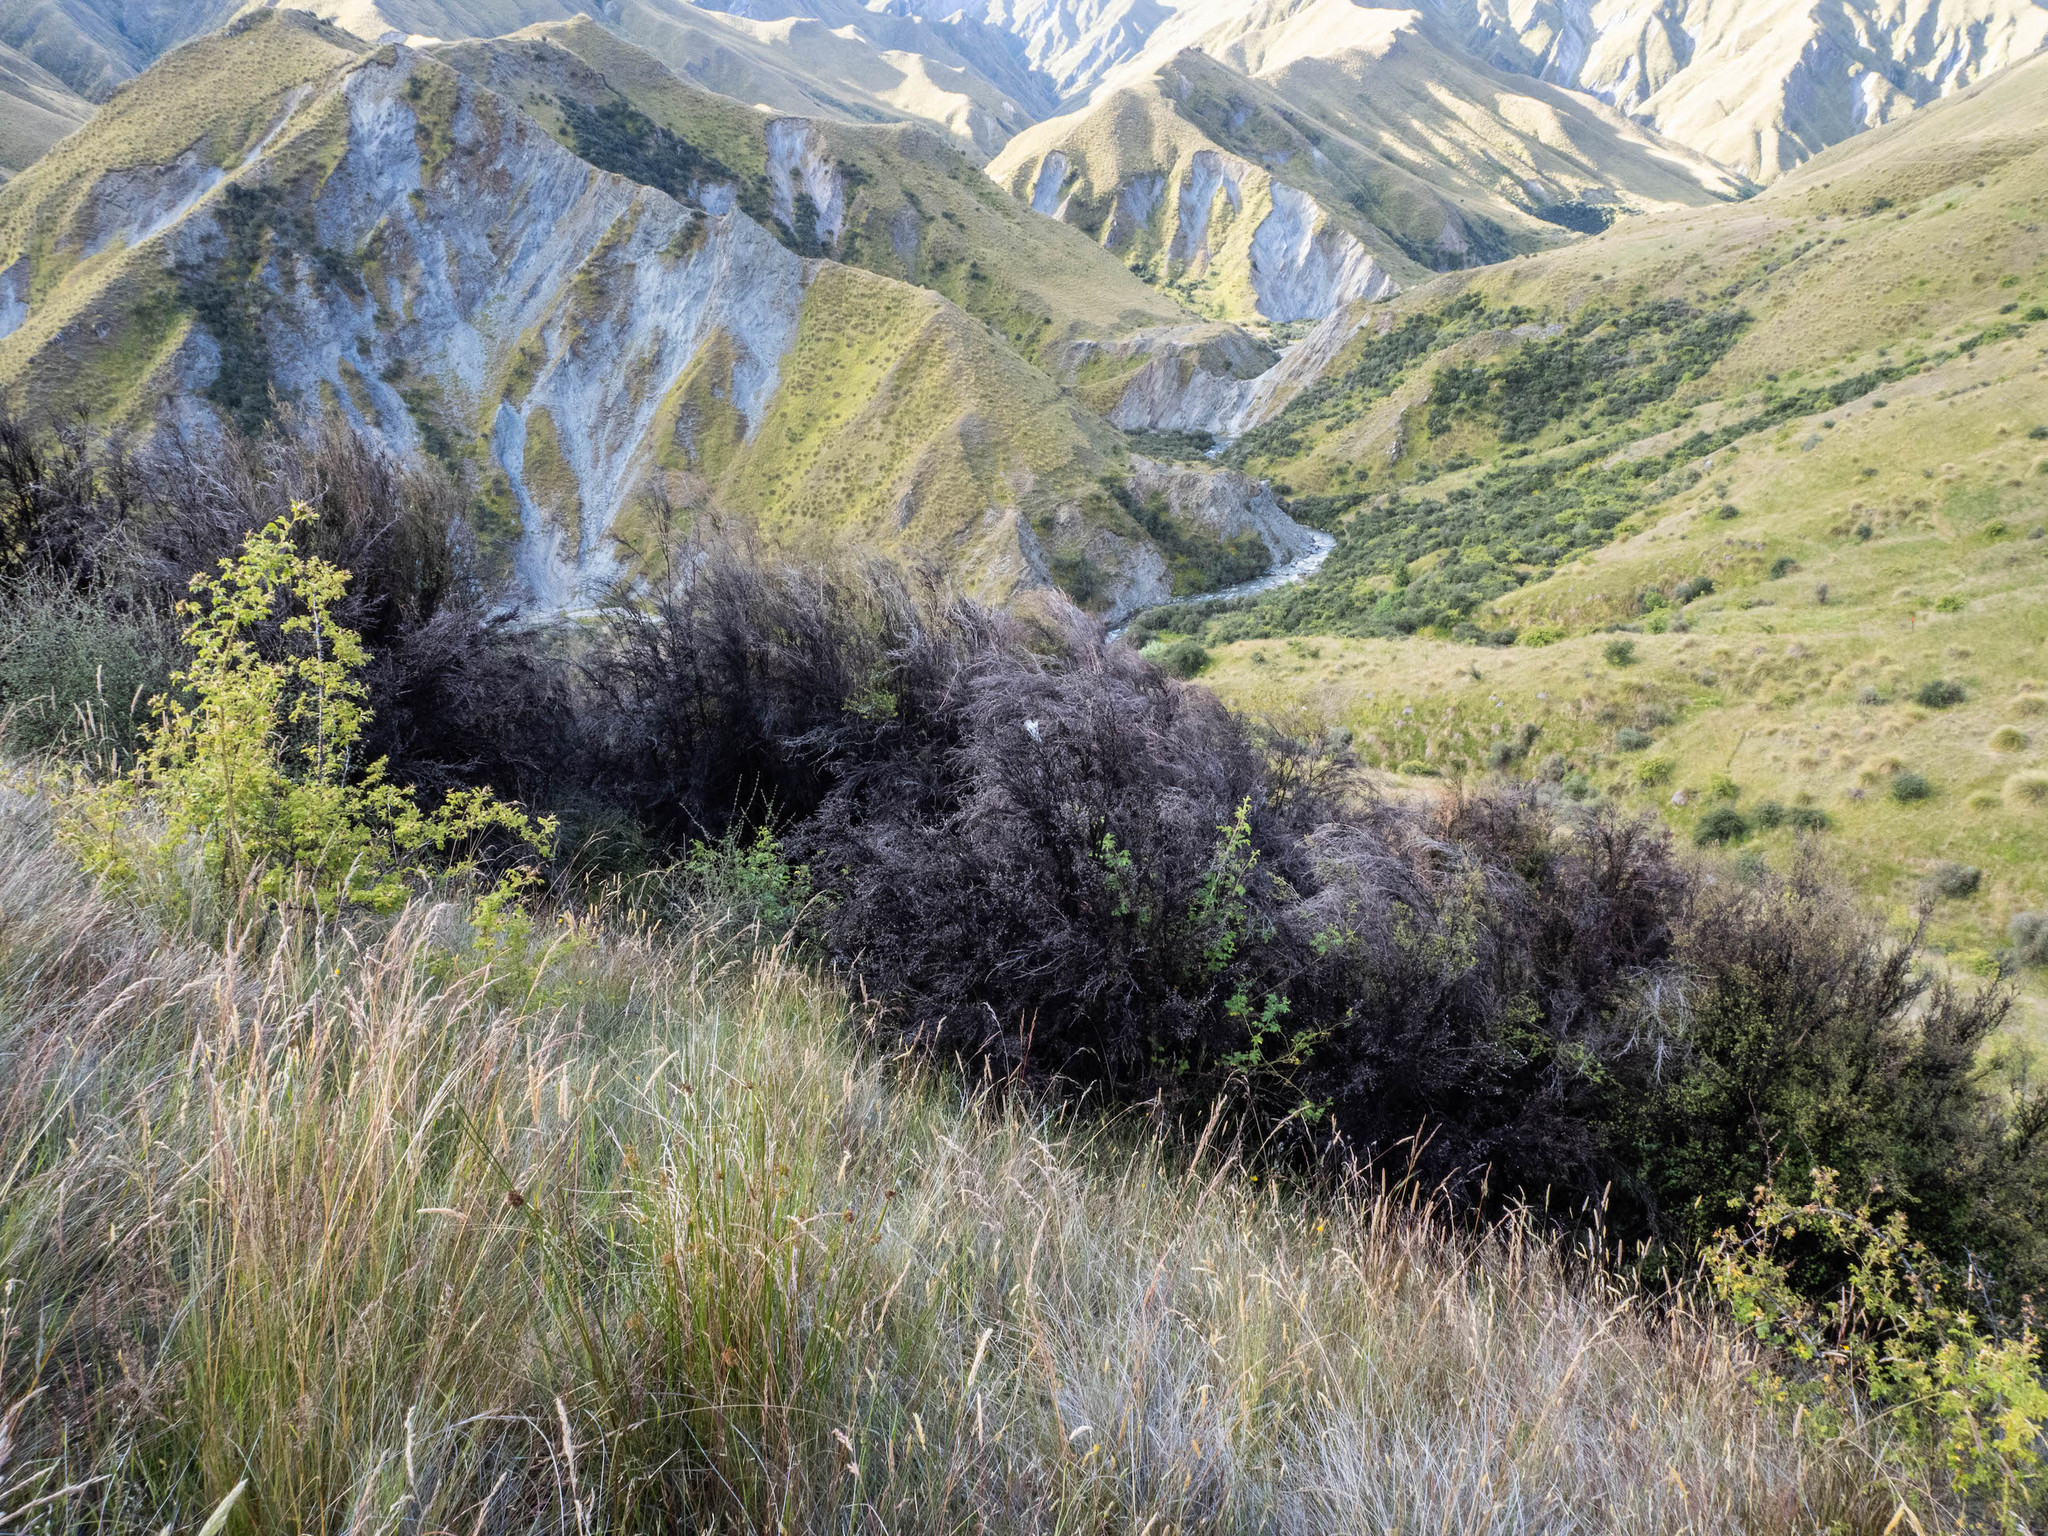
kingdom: Plantae
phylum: Tracheophyta
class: Magnoliopsida
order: Myrtales
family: Myrtaceae
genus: Leptospermum
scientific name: Leptospermum scoparium
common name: Broom tea-tree
